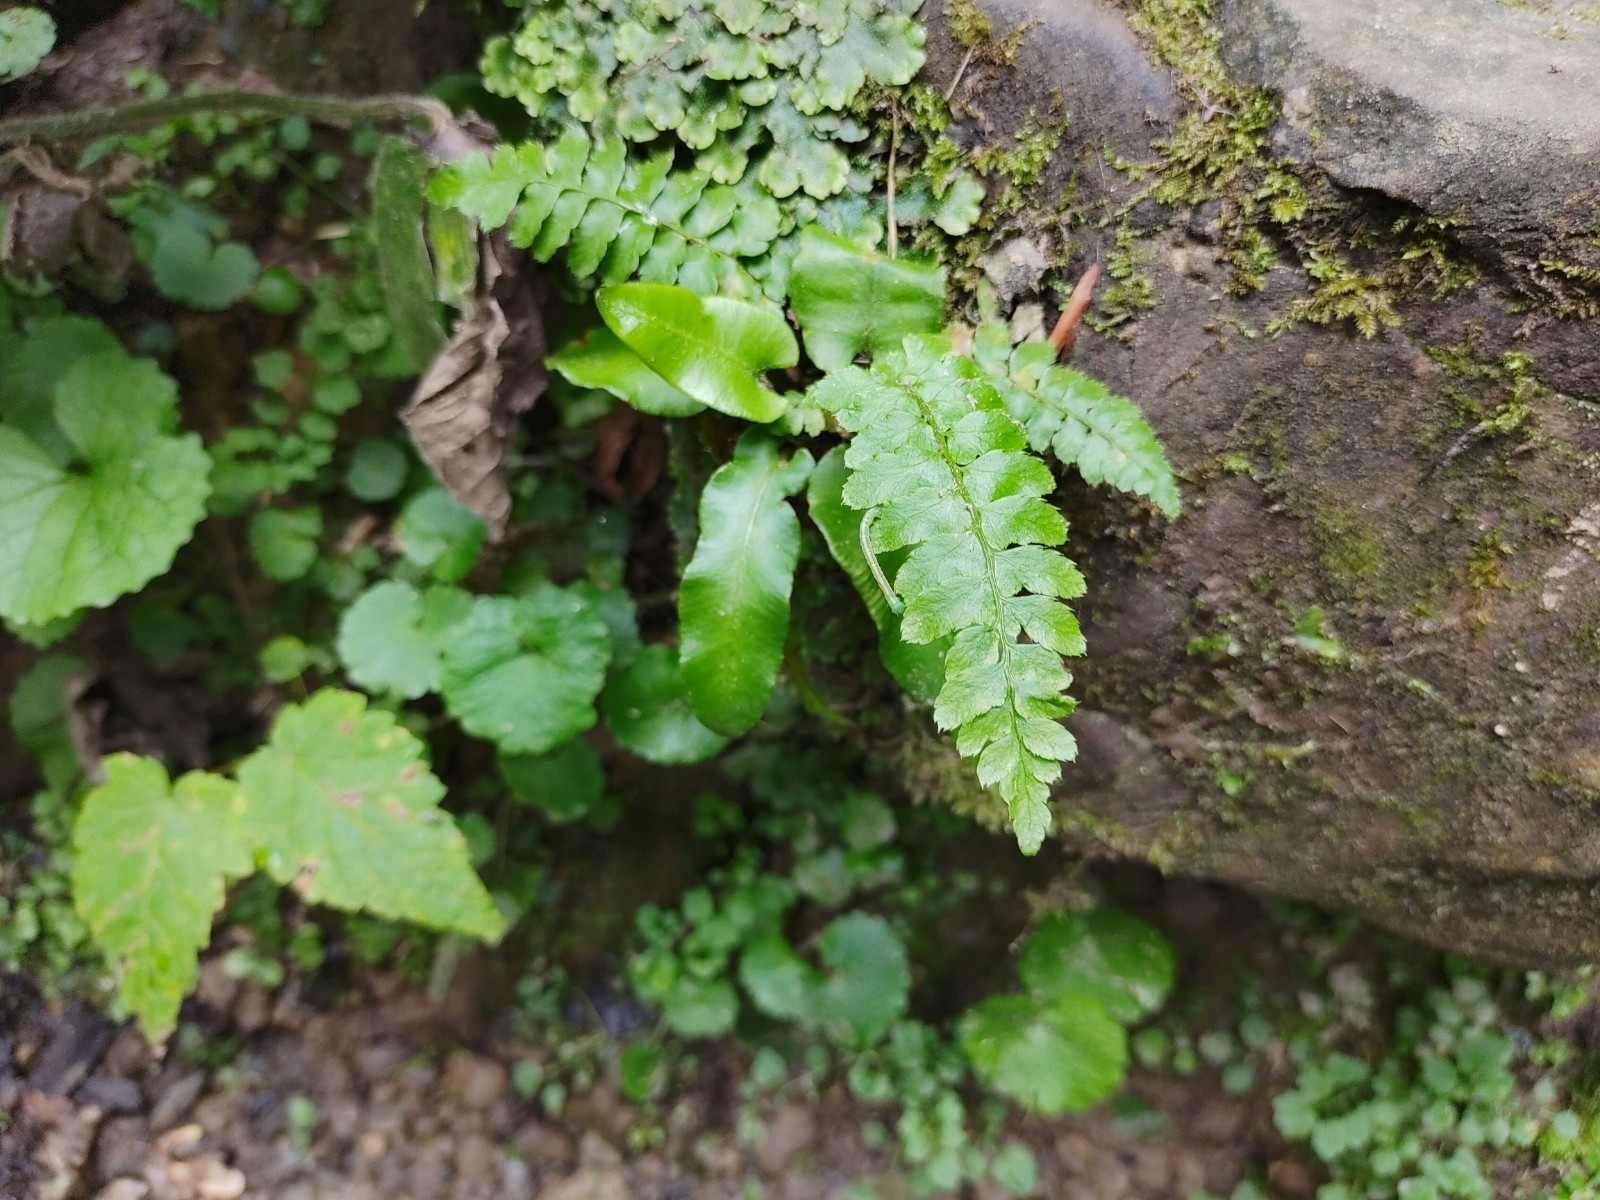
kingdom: Plantae
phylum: Tracheophyta
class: Polypodiopsida
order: Polypodiales
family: Dryopteridaceae
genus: Polystichum
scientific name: Polystichum braunii
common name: Braun's holly fern
